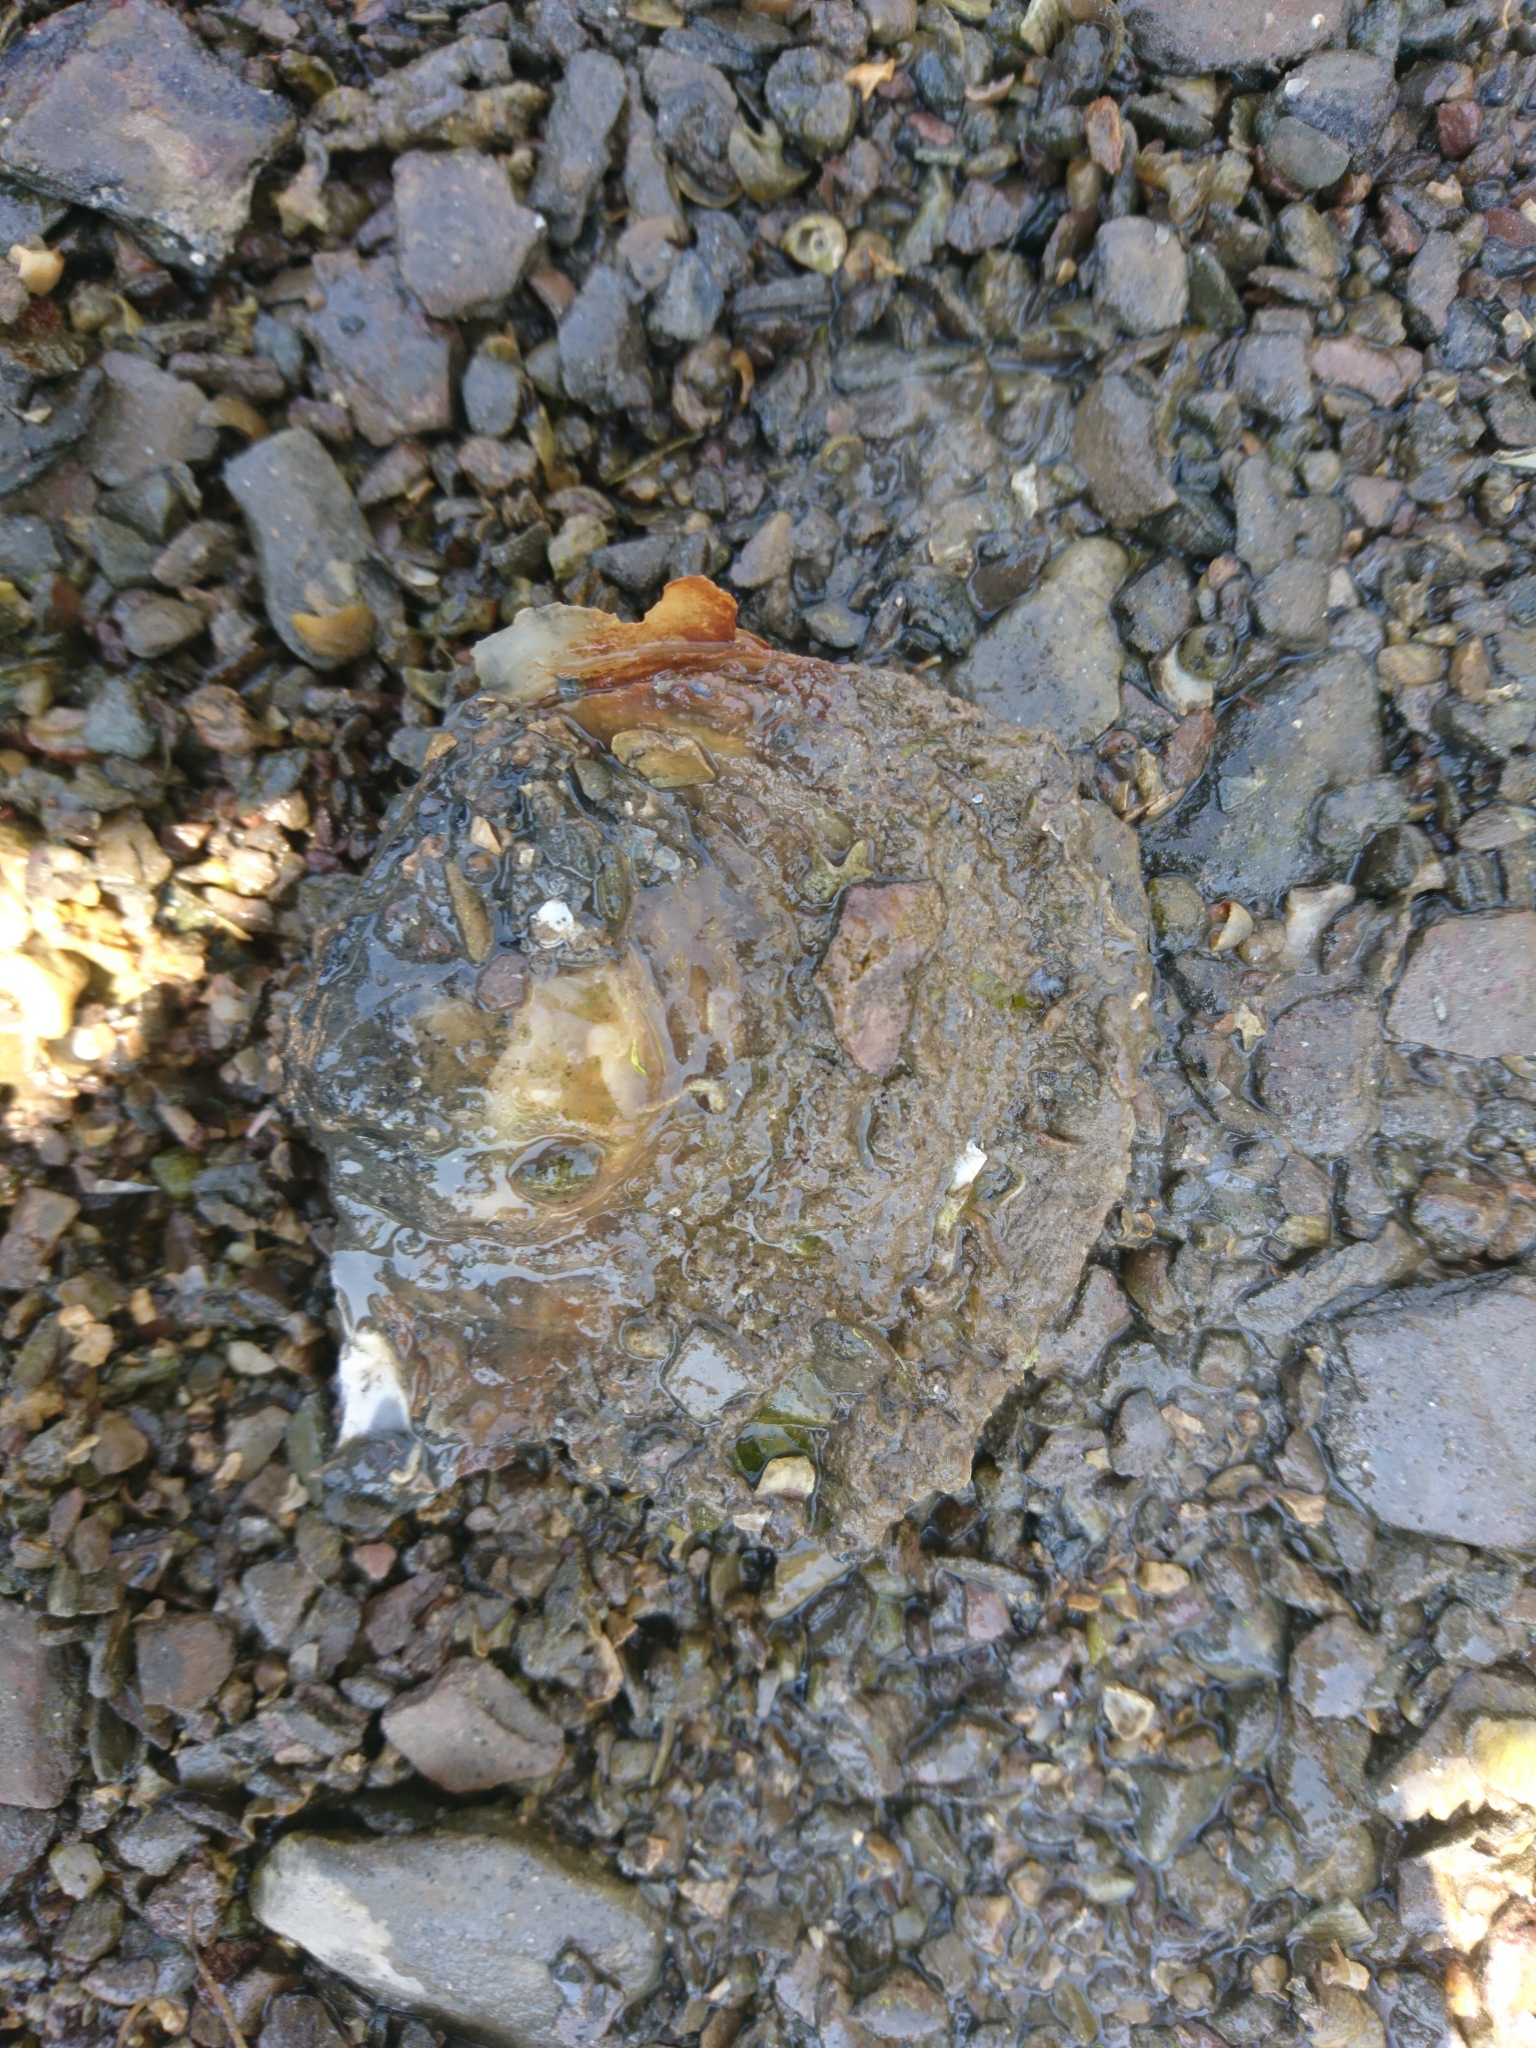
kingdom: Animalia
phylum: Mollusca
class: Bivalvia
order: Ostreida
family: Ostreidae
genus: Ostrea
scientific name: Ostrea edulis
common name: Flat oyster
